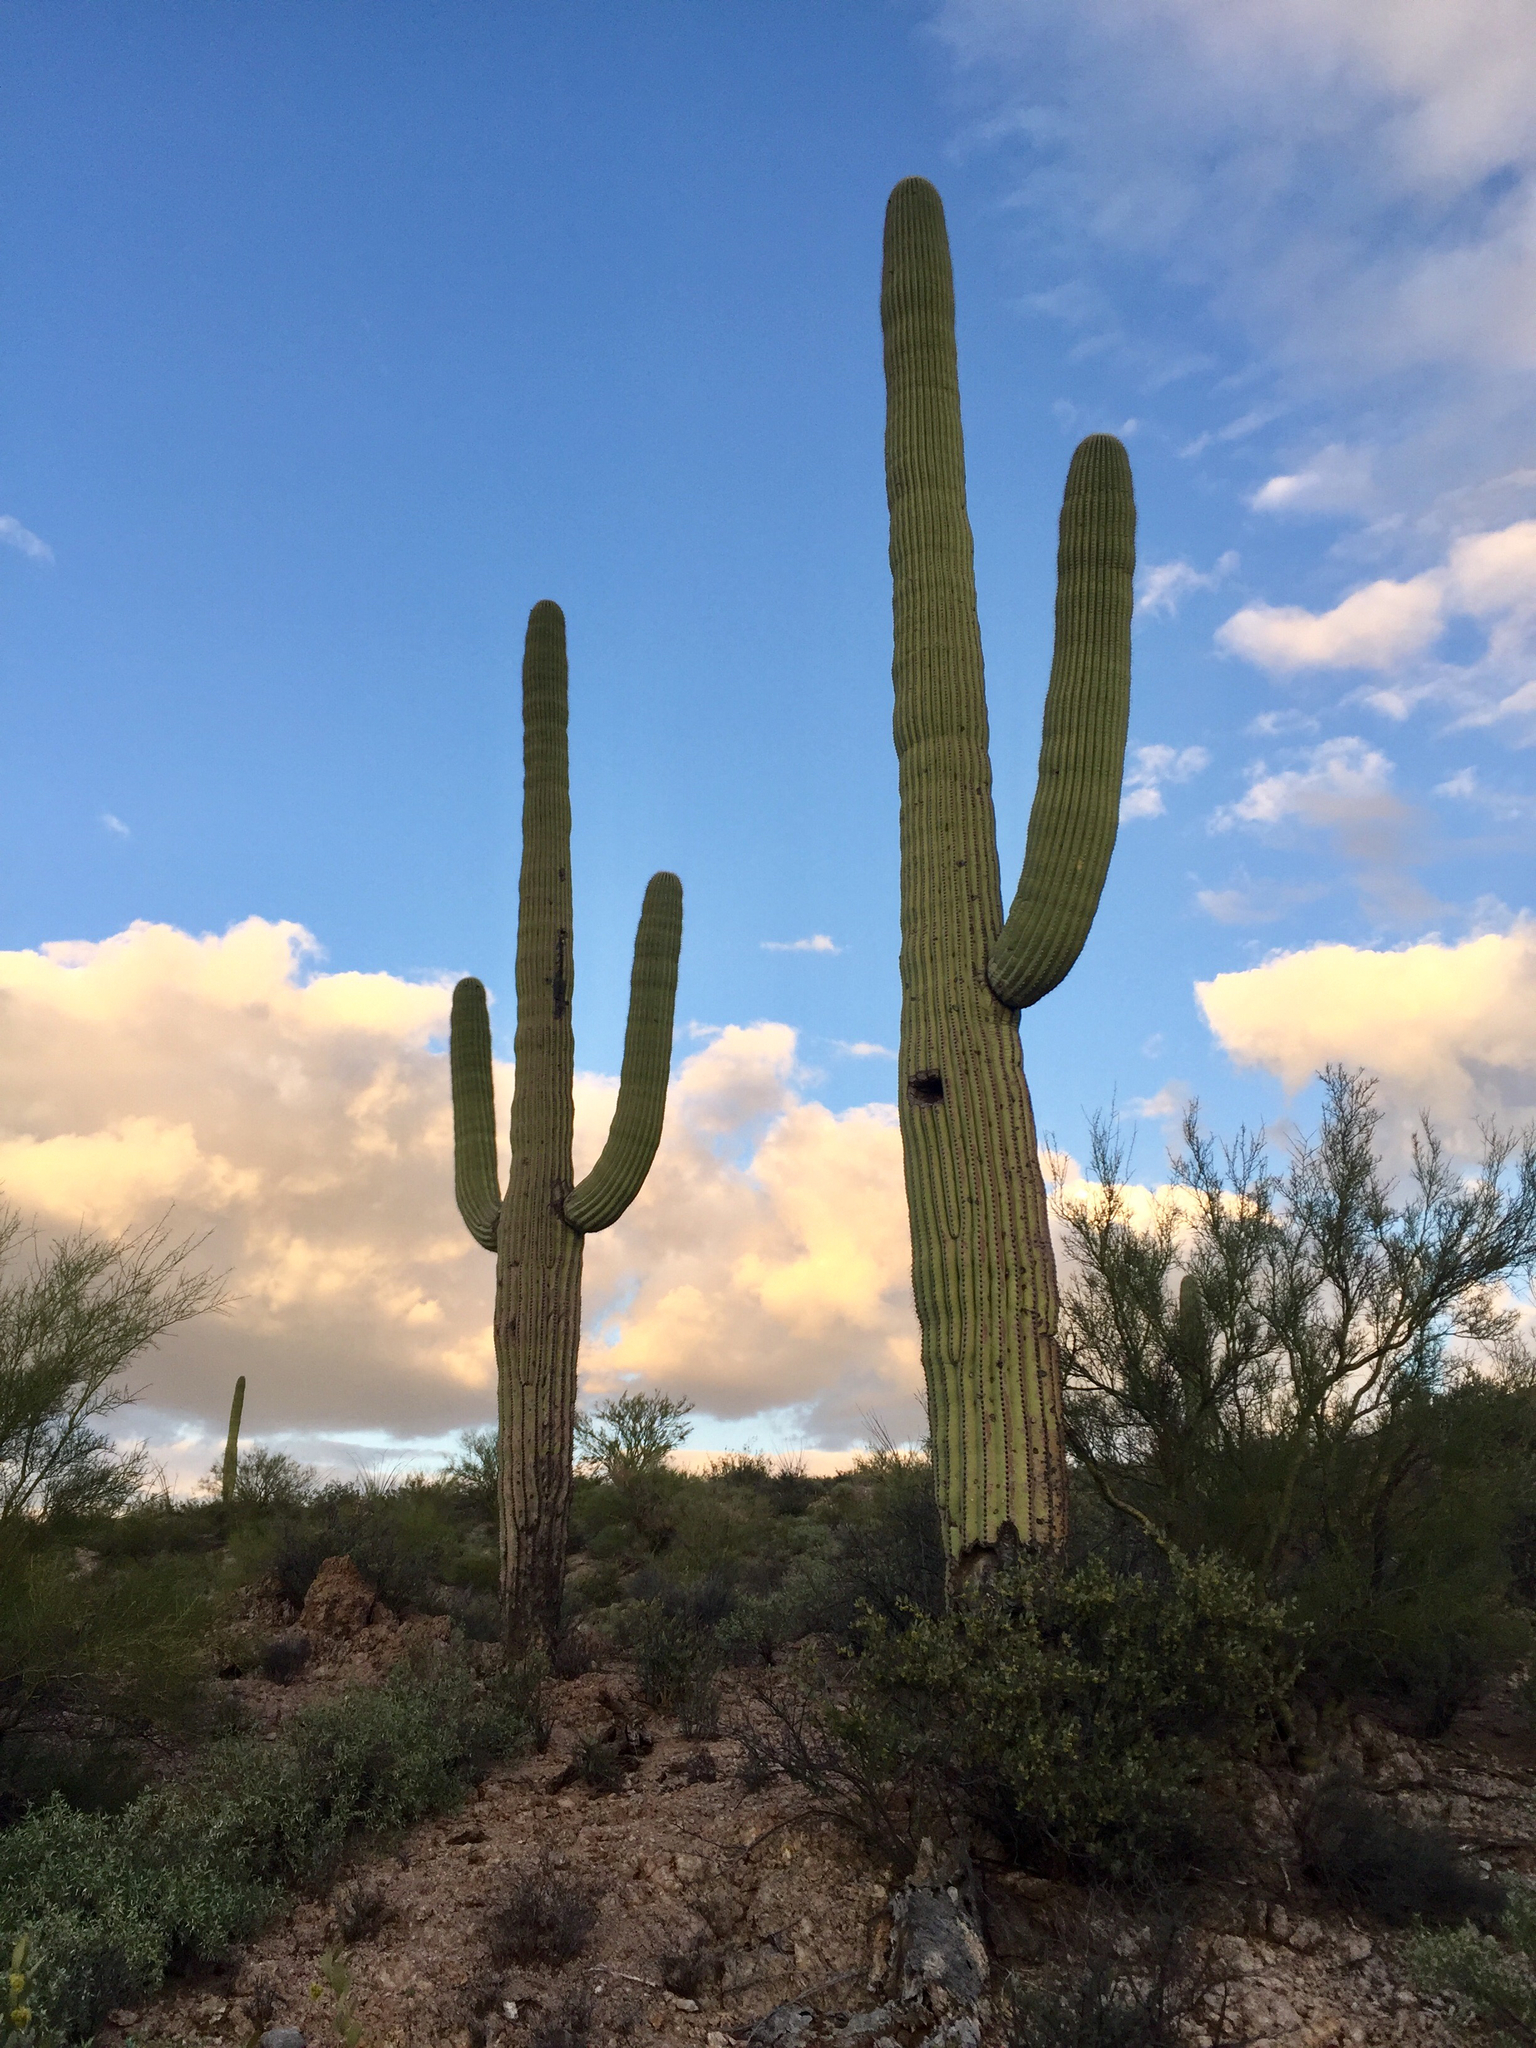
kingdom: Plantae
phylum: Tracheophyta
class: Magnoliopsida
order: Caryophyllales
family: Cactaceae
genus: Carnegiea
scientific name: Carnegiea gigantea
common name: Saguaro
